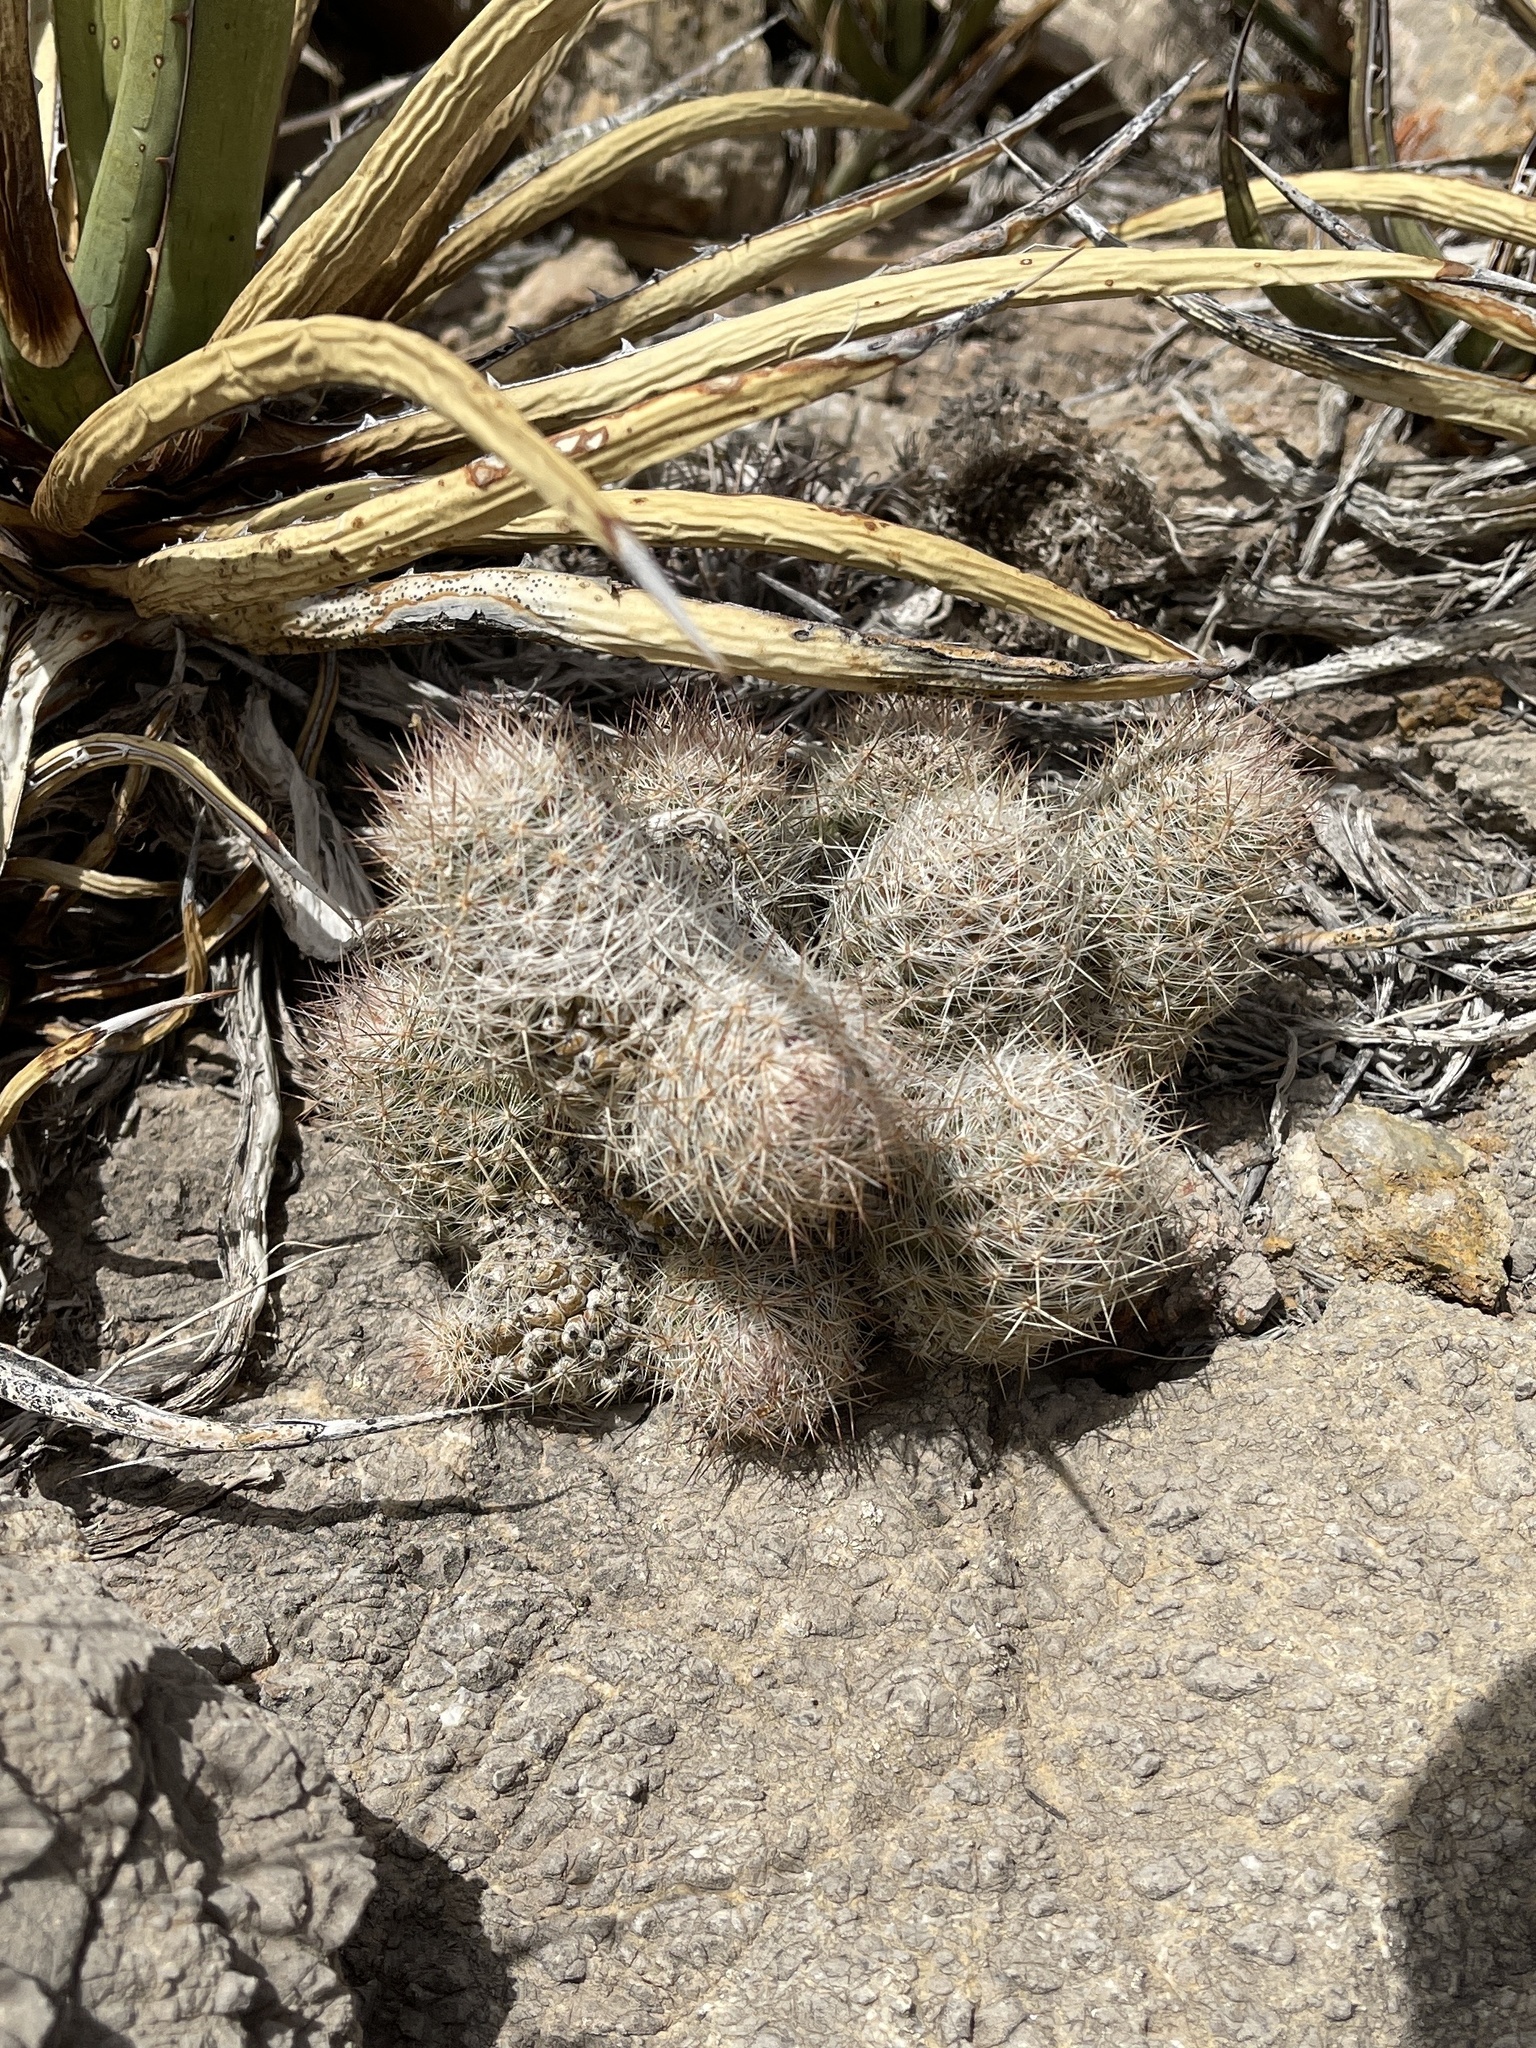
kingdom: Plantae
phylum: Tracheophyta
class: Magnoliopsida
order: Caryophyllales
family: Cactaceae
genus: Pelecyphora
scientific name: Pelecyphora tuberculosa
